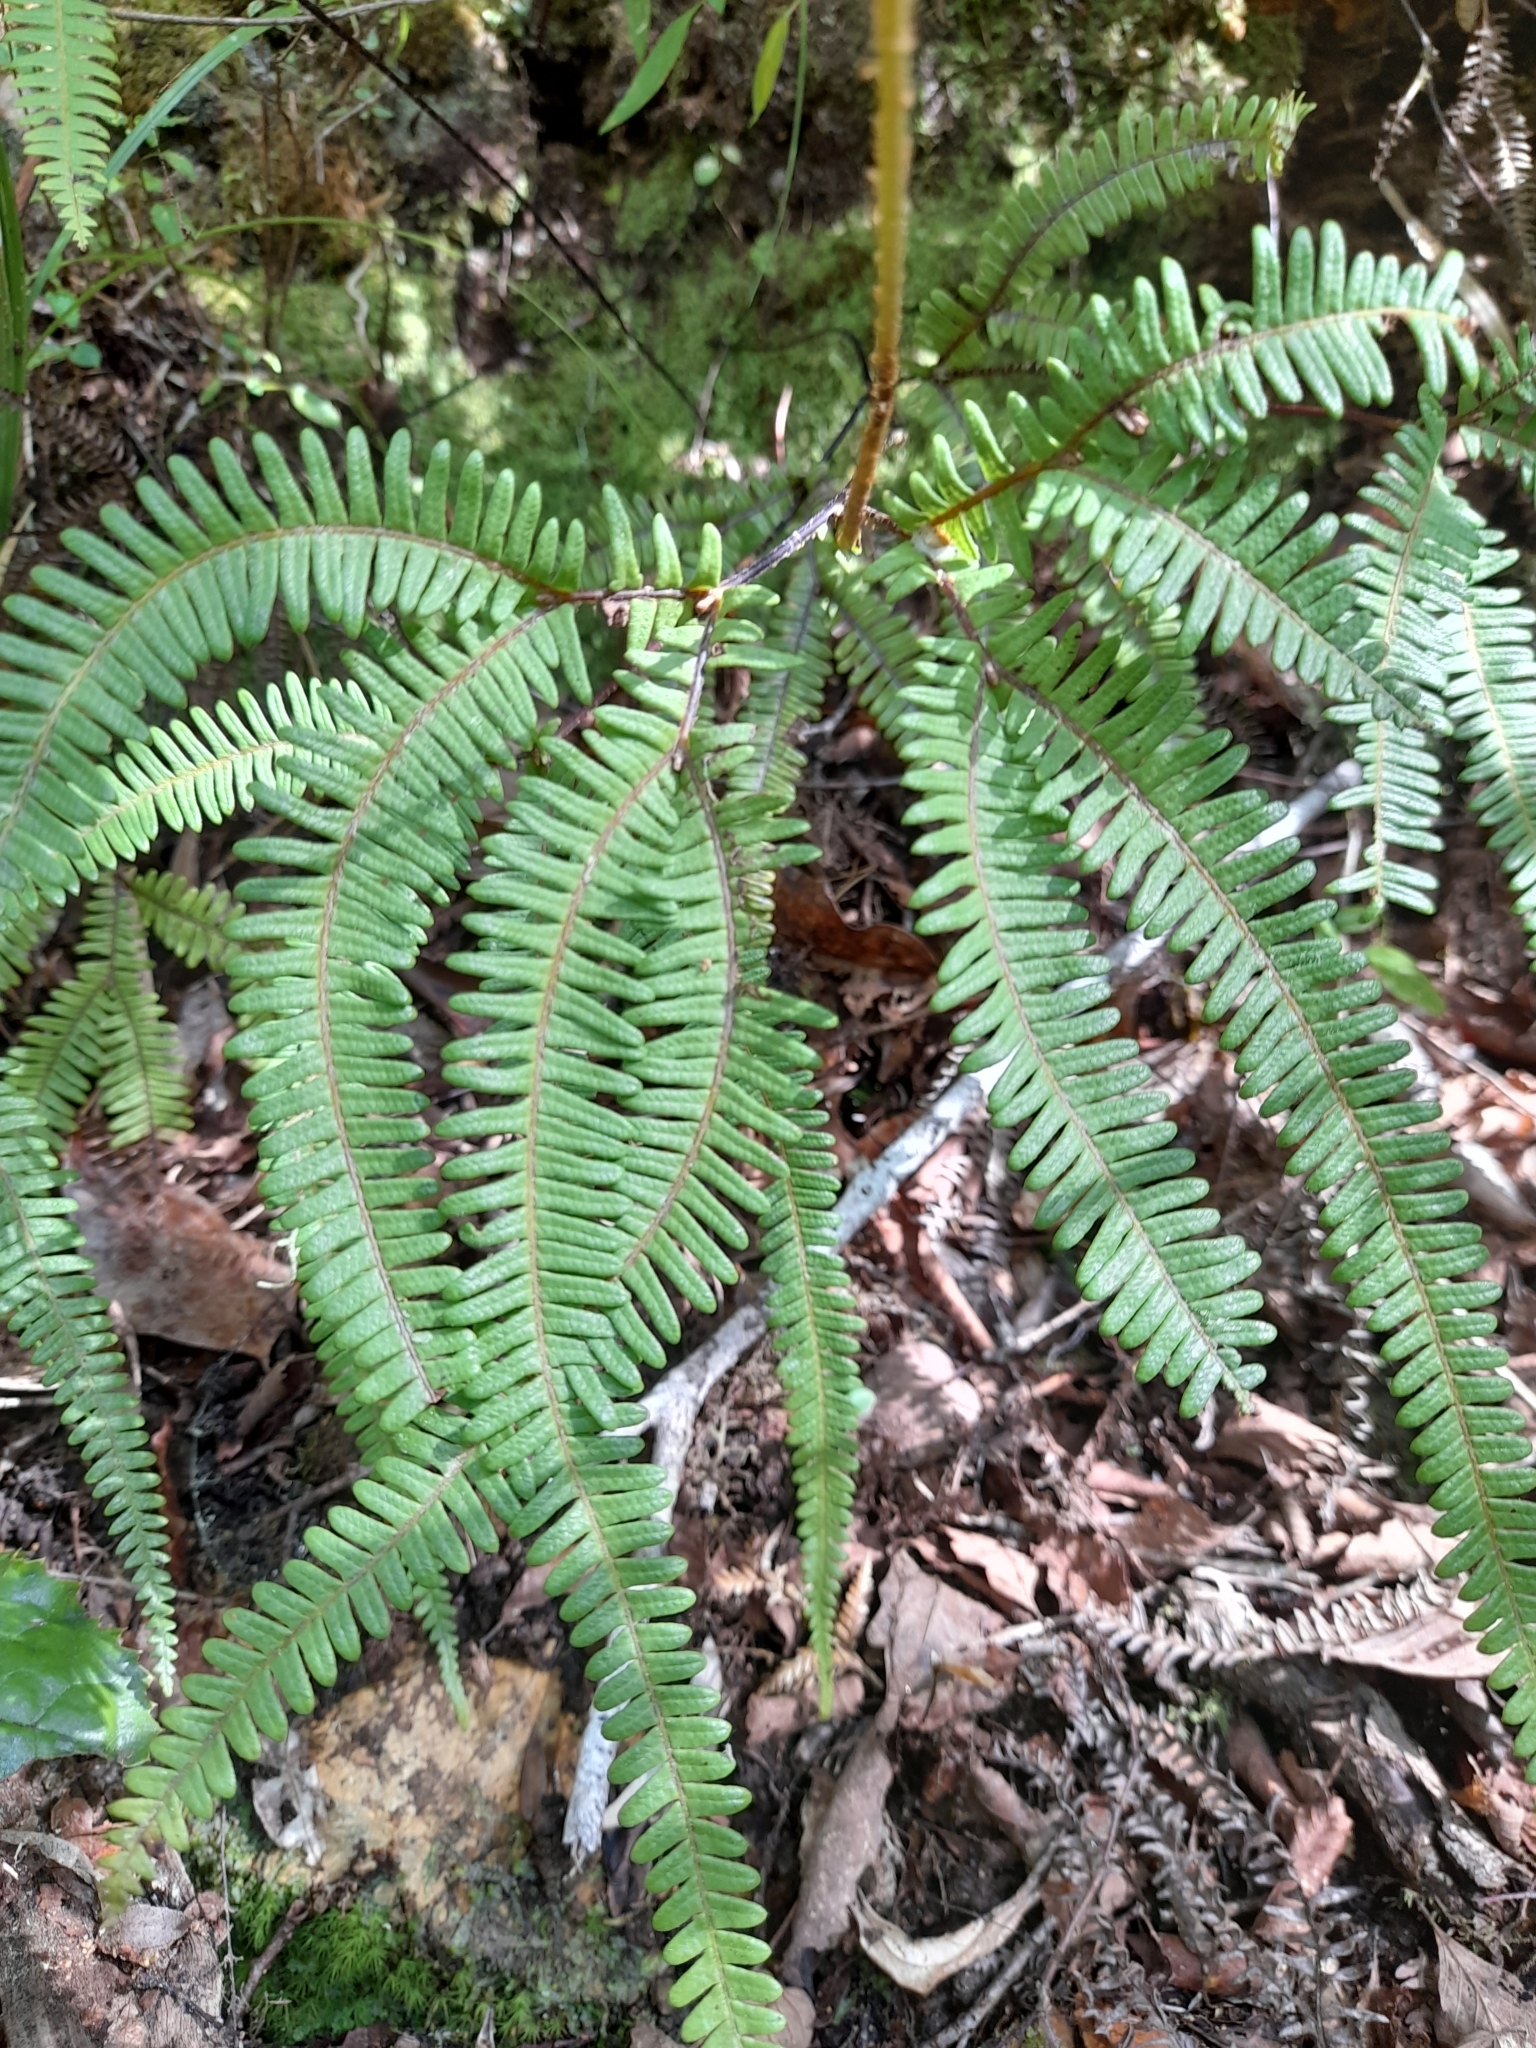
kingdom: Plantae
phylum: Tracheophyta
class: Polypodiopsida
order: Gleicheniales
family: Gleicheniaceae
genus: Sticherus
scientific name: Sticherus squamulosus
